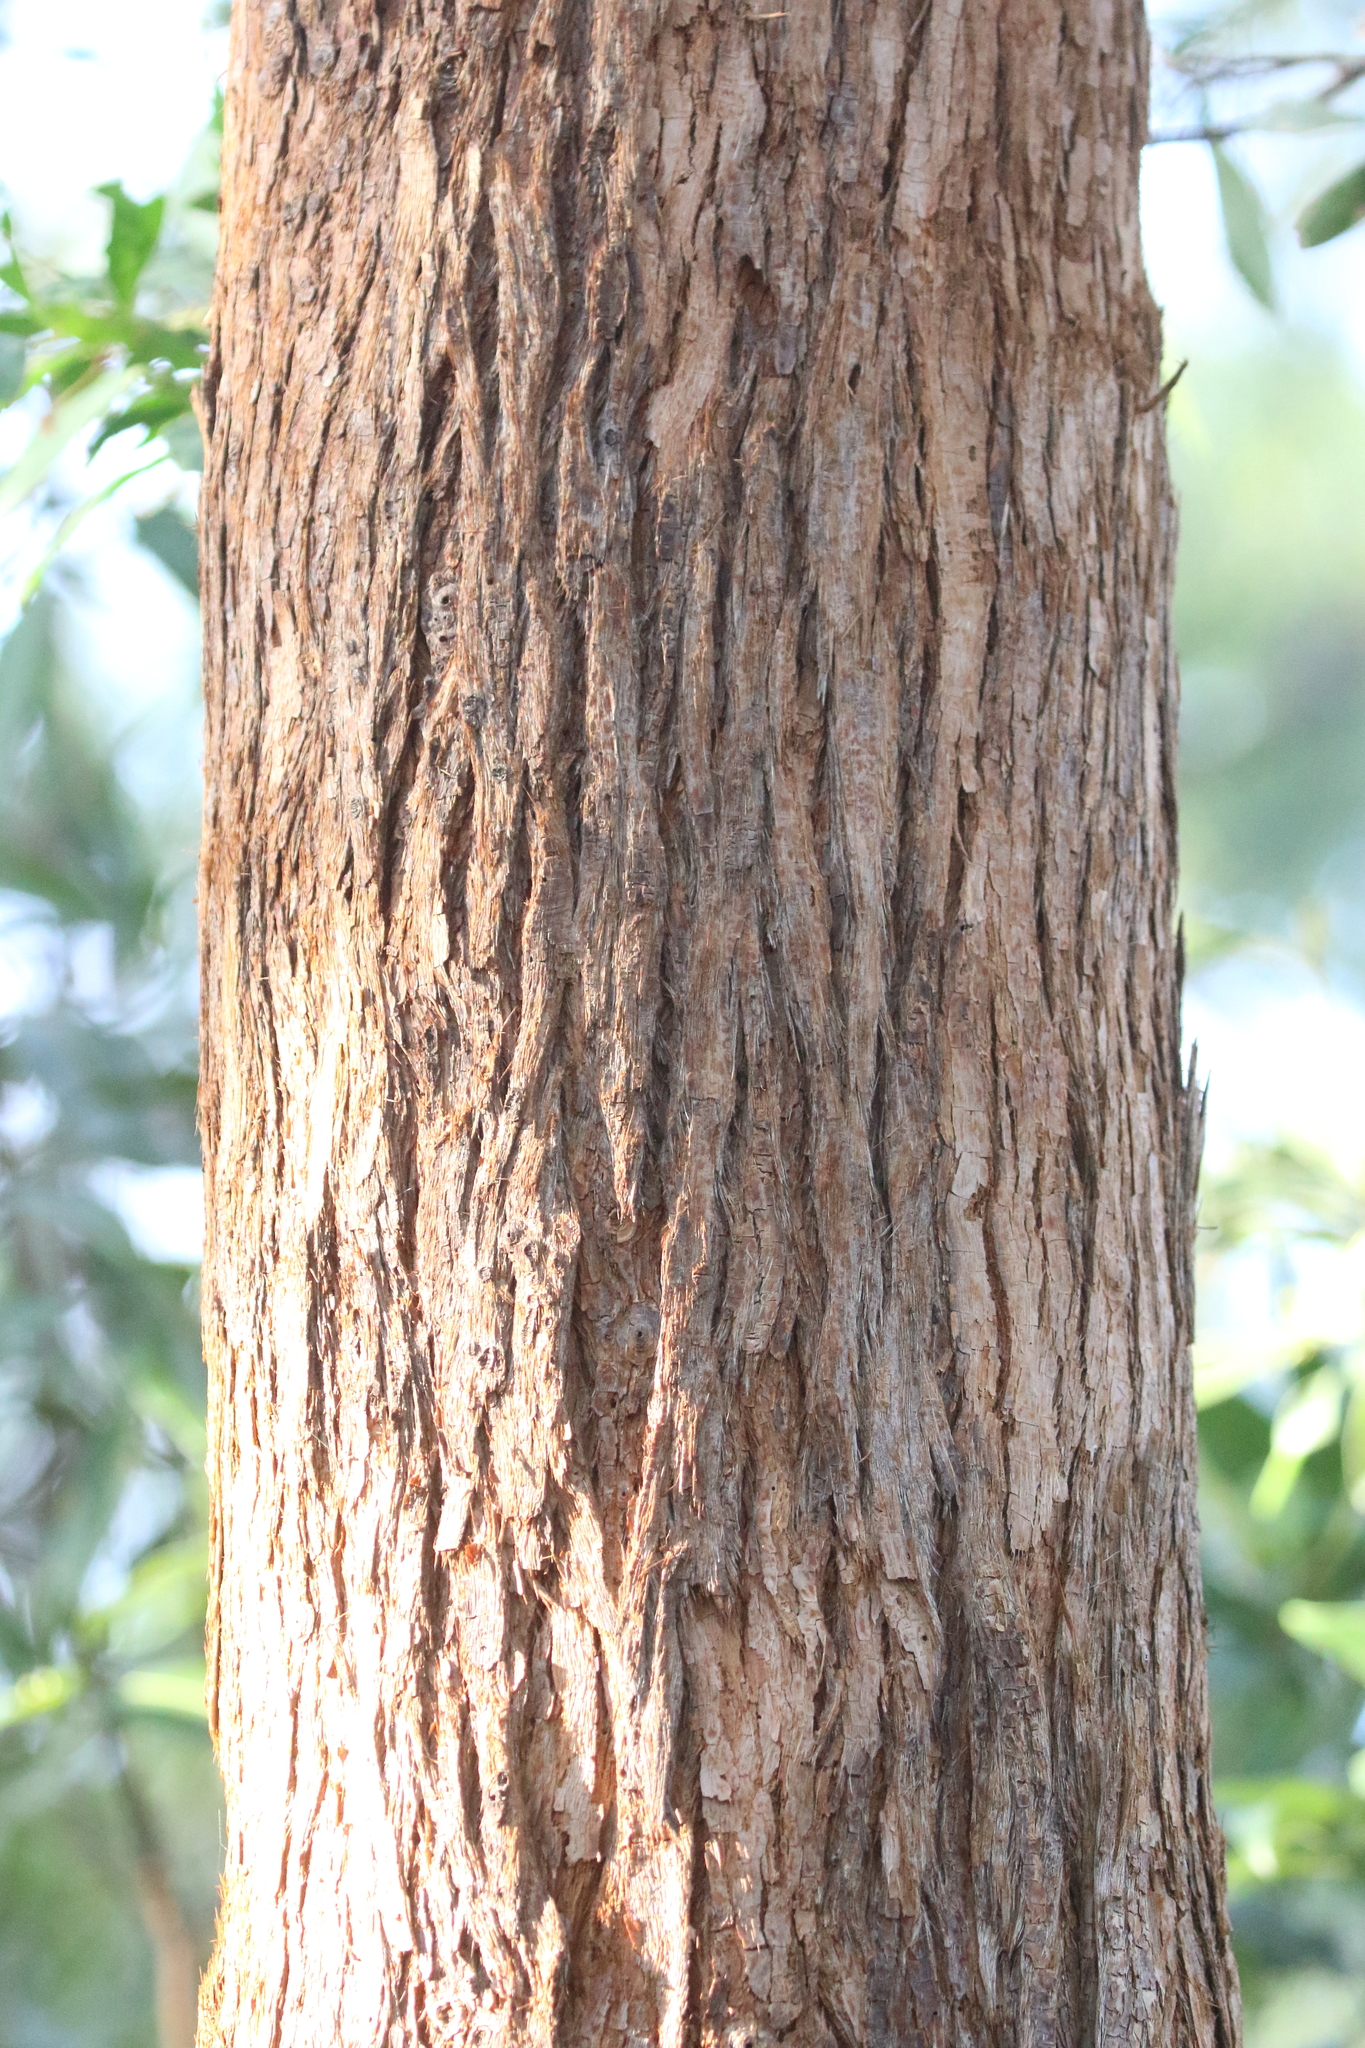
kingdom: Plantae
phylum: Tracheophyta
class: Magnoliopsida
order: Myrtales
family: Myrtaceae
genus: Eucalyptus
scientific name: Eucalyptus microcorys
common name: Tallowwood
